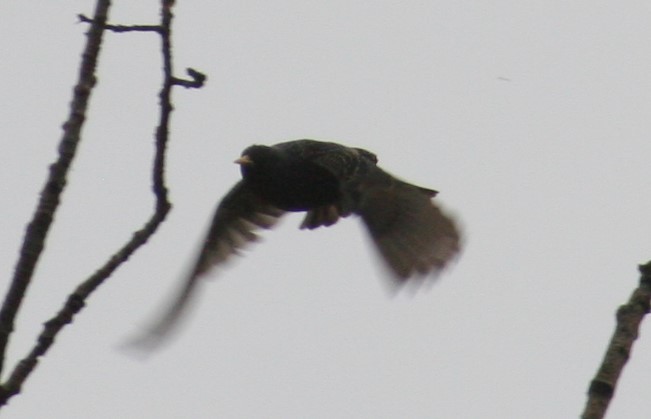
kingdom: Animalia
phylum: Chordata
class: Aves
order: Passeriformes
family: Sturnidae
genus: Sturnus
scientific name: Sturnus vulgaris
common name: Common starling
